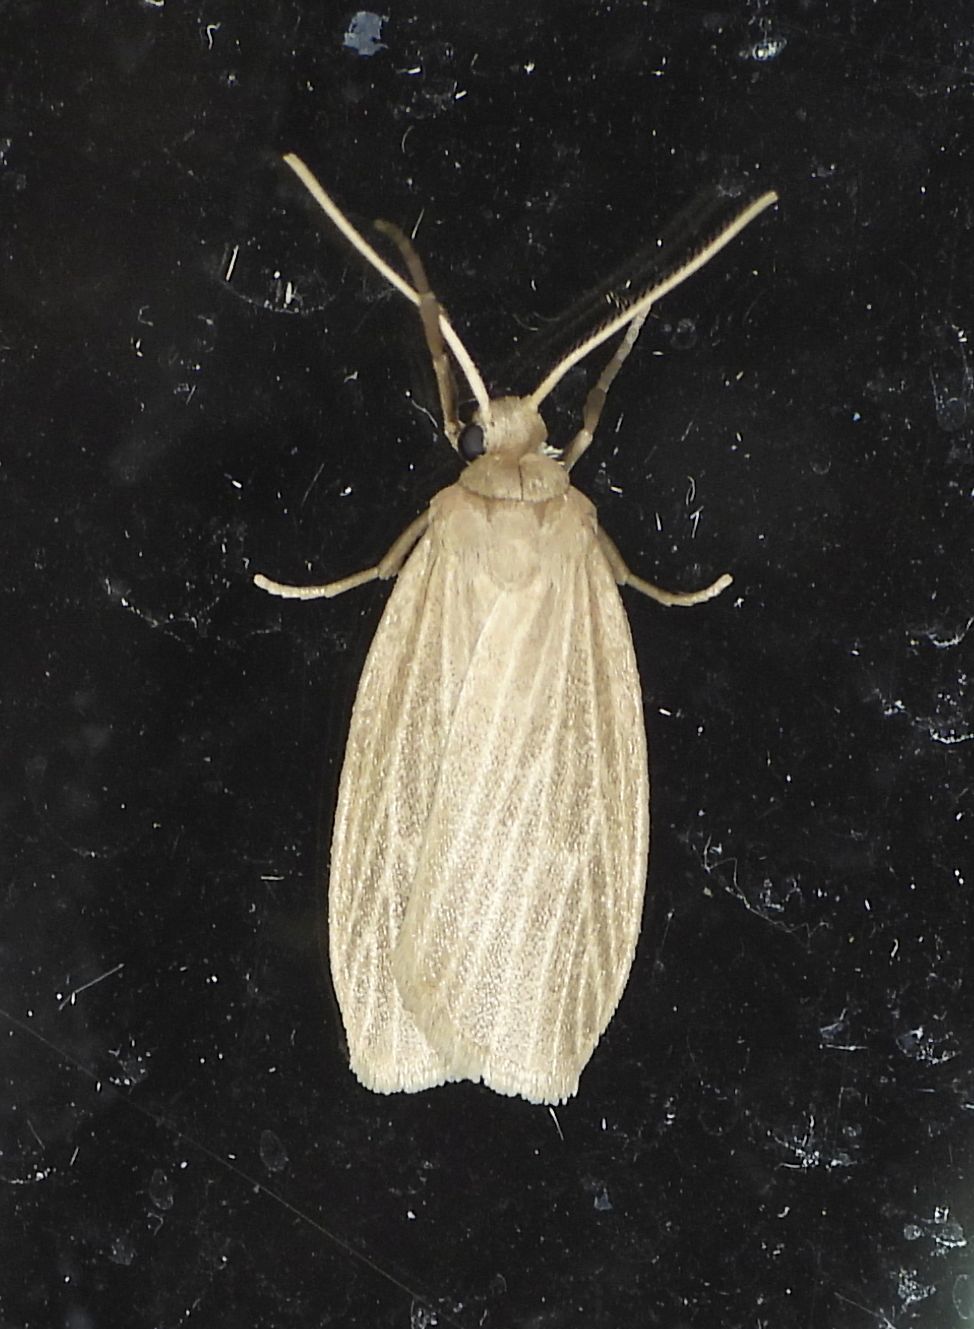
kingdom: Animalia
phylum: Arthropoda
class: Insecta
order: Lepidoptera
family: Erebidae
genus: Crambidia
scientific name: Crambidia pallida
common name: Pale lichen moth
